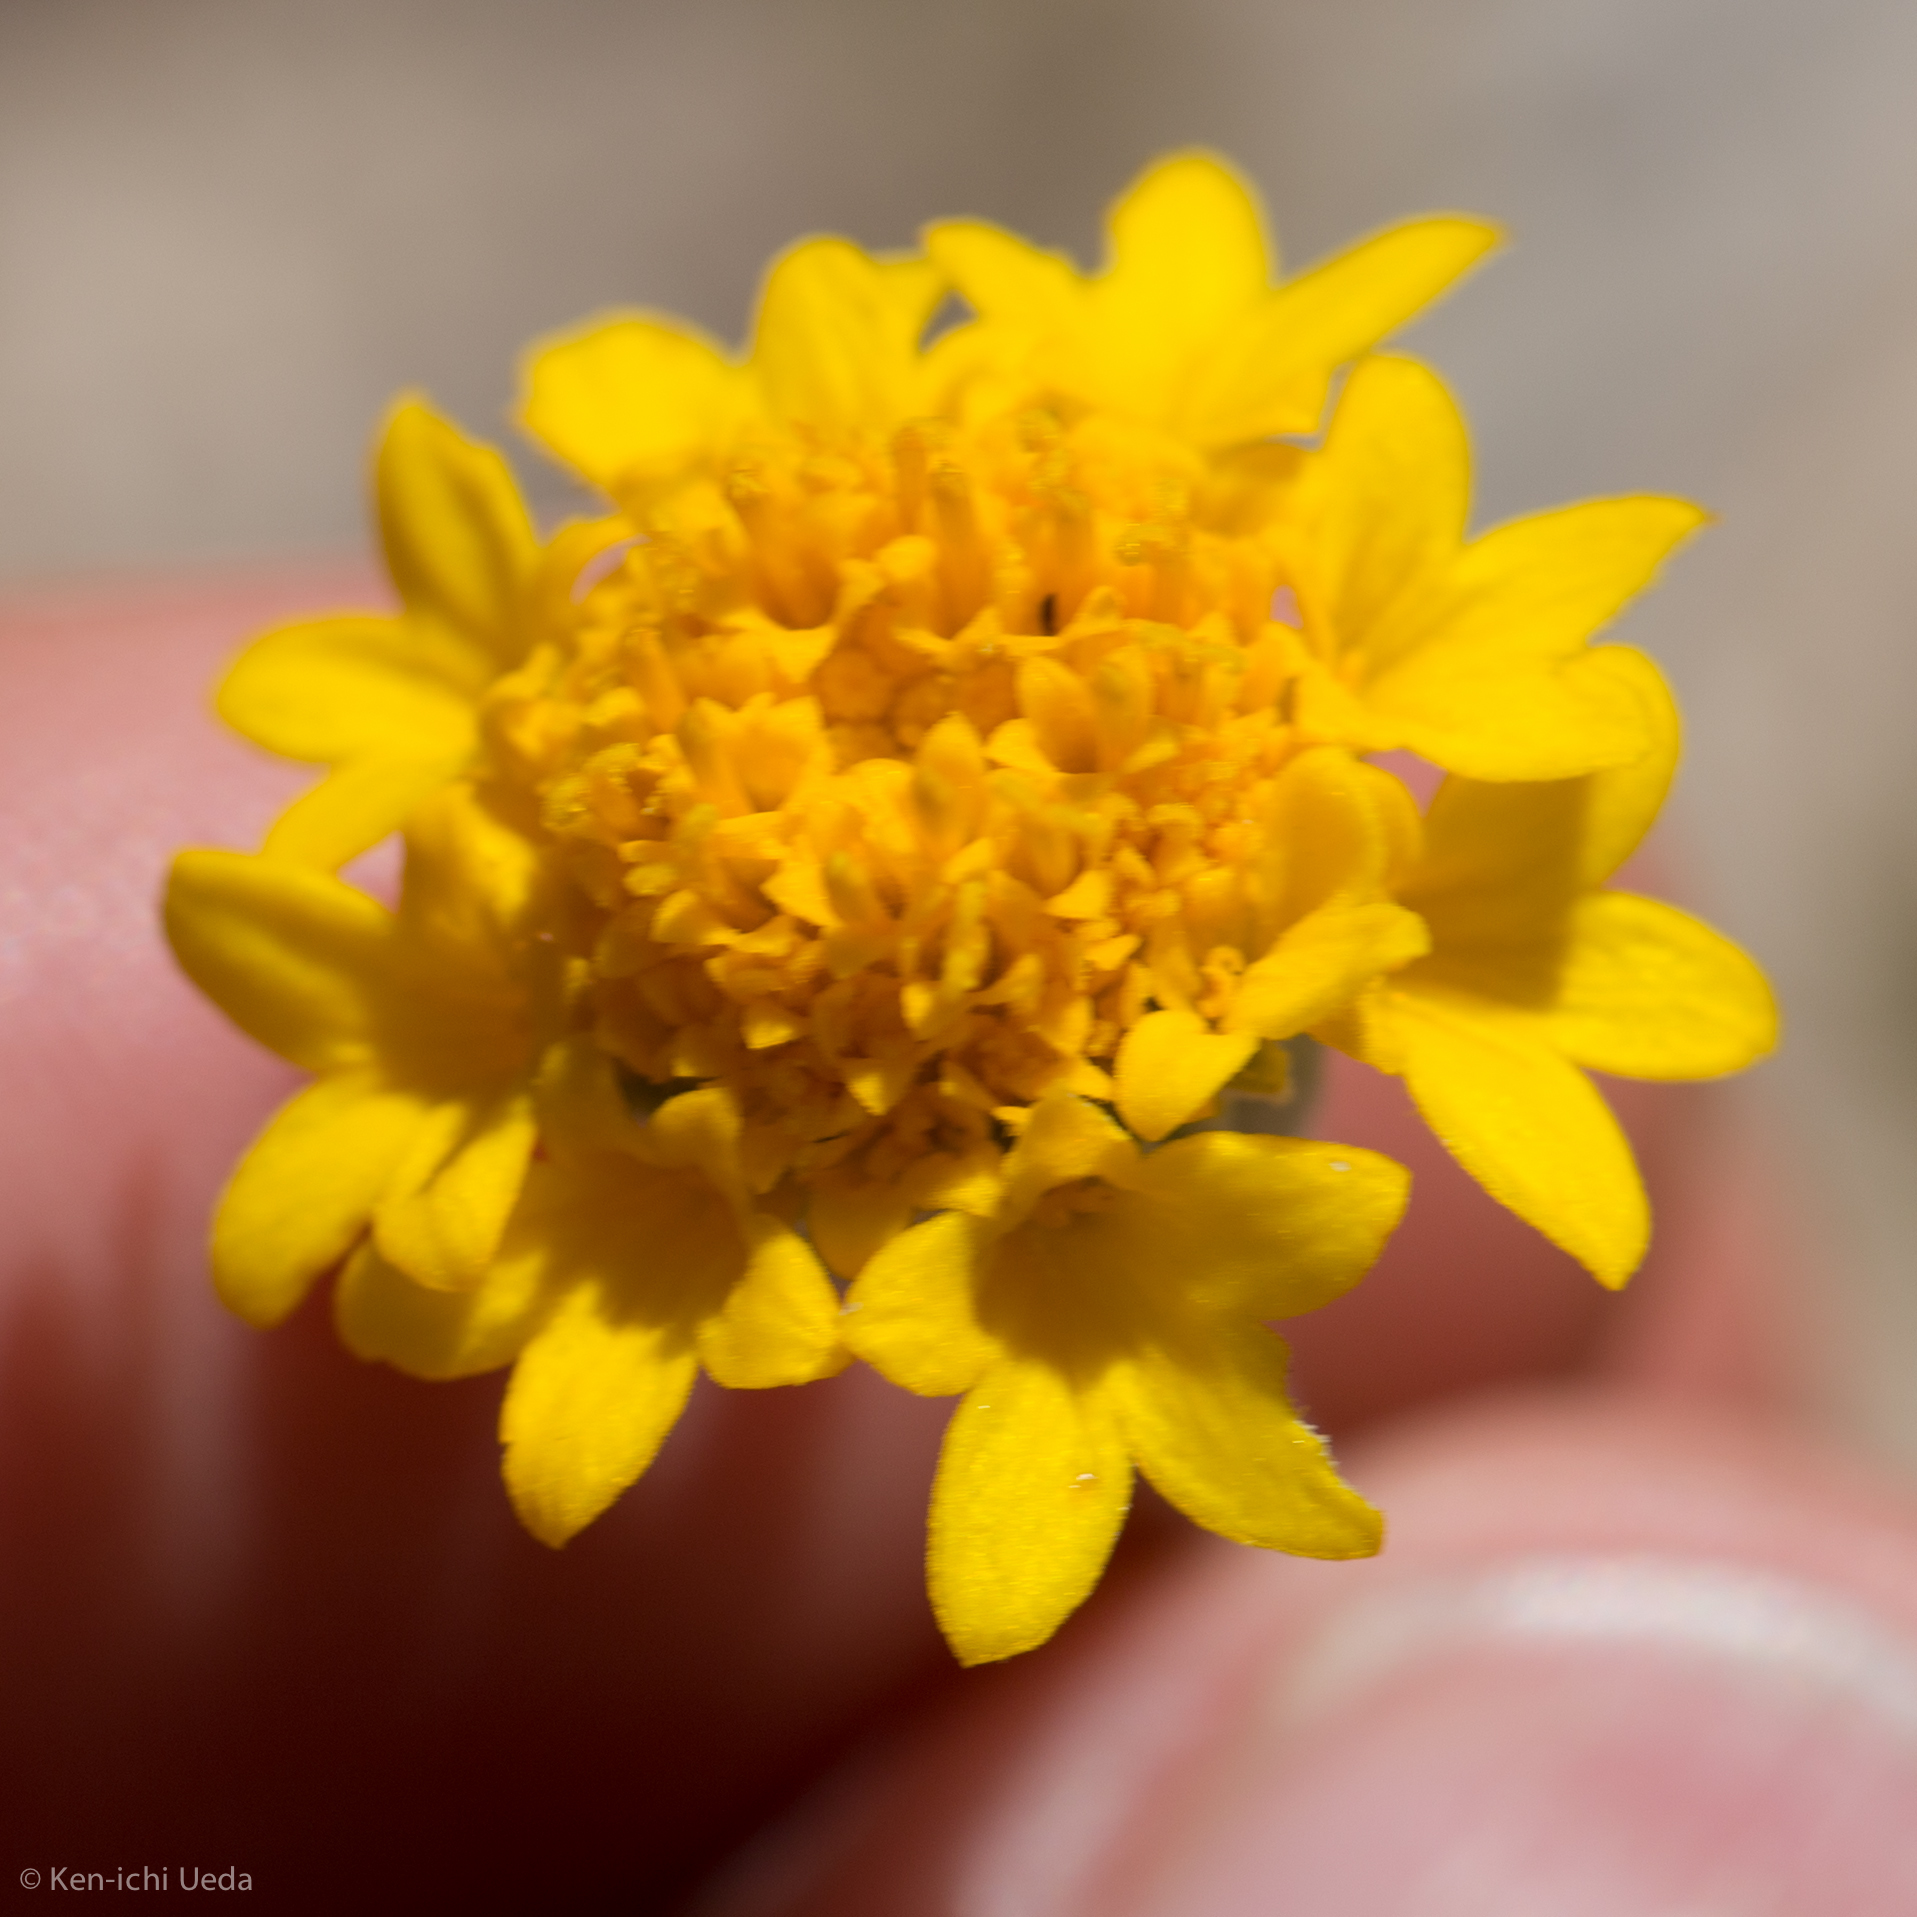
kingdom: Plantae
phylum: Tracheophyta
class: Magnoliopsida
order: Asterales
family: Asteraceae
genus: Chaenactis
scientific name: Chaenactis glabriuscula
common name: Yellow pincushion
